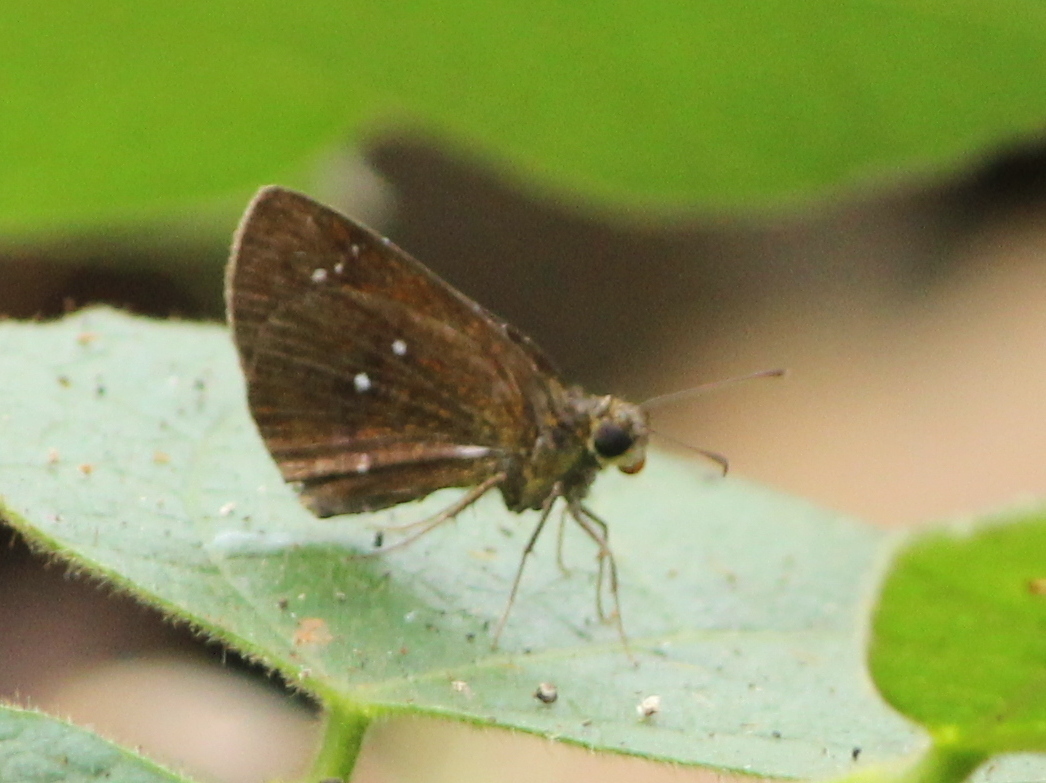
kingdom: Animalia
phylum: Arthropoda
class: Insecta
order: Lepidoptera
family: Hesperiidae
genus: Iambrix
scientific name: Iambrix salsala
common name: Chestnut bob
